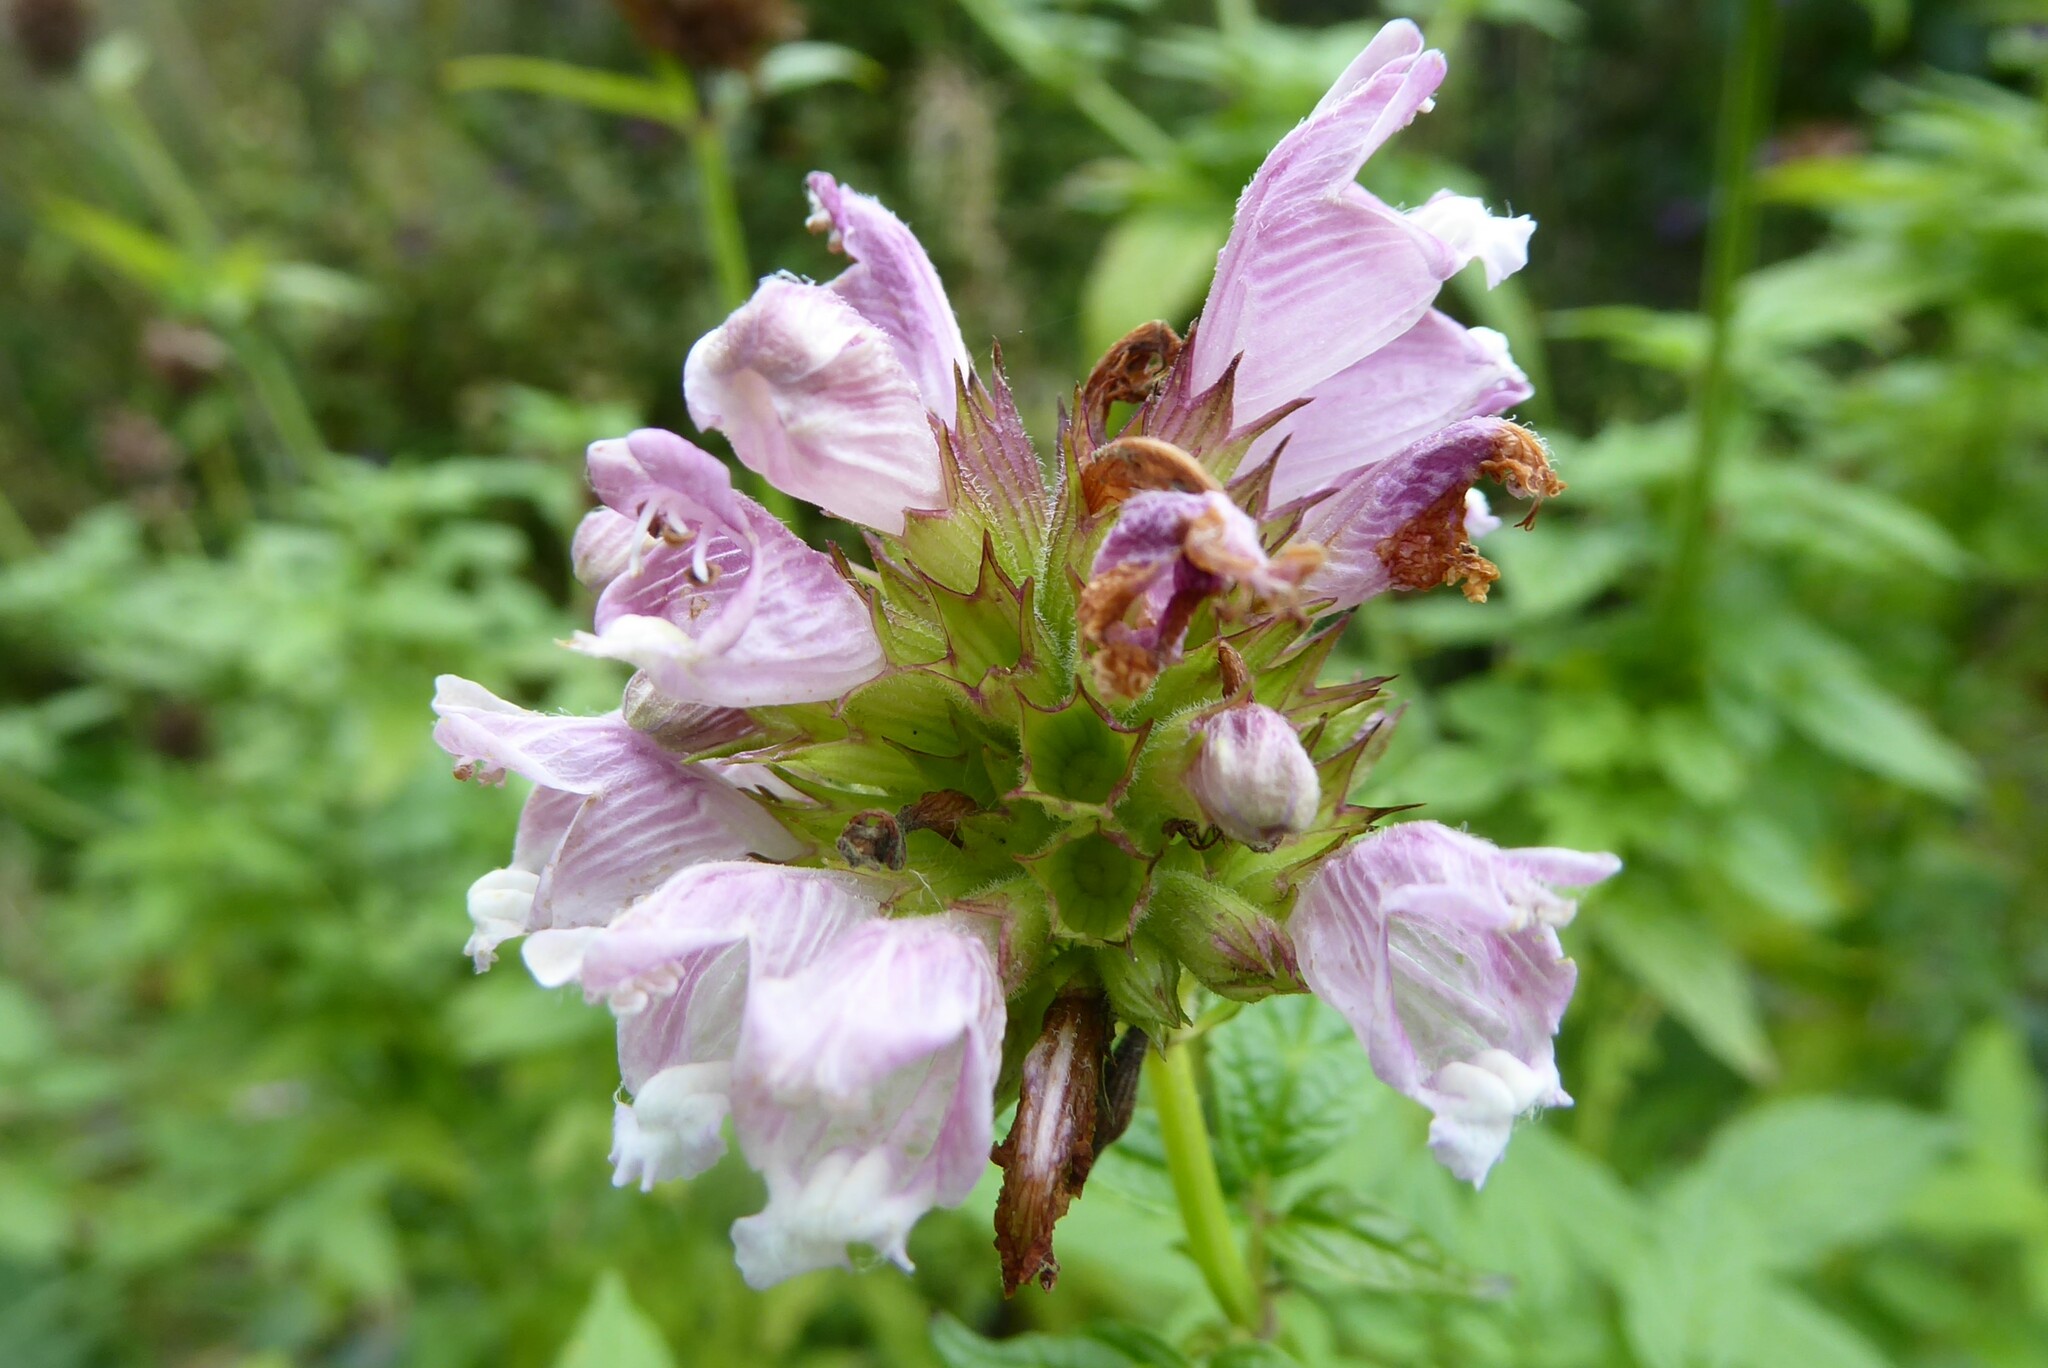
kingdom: Plantae
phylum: Tracheophyta
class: Magnoliopsida
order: Lamiales
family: Lamiaceae
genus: Cedronella
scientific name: Cedronella canariensis
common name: Canary islands balm
